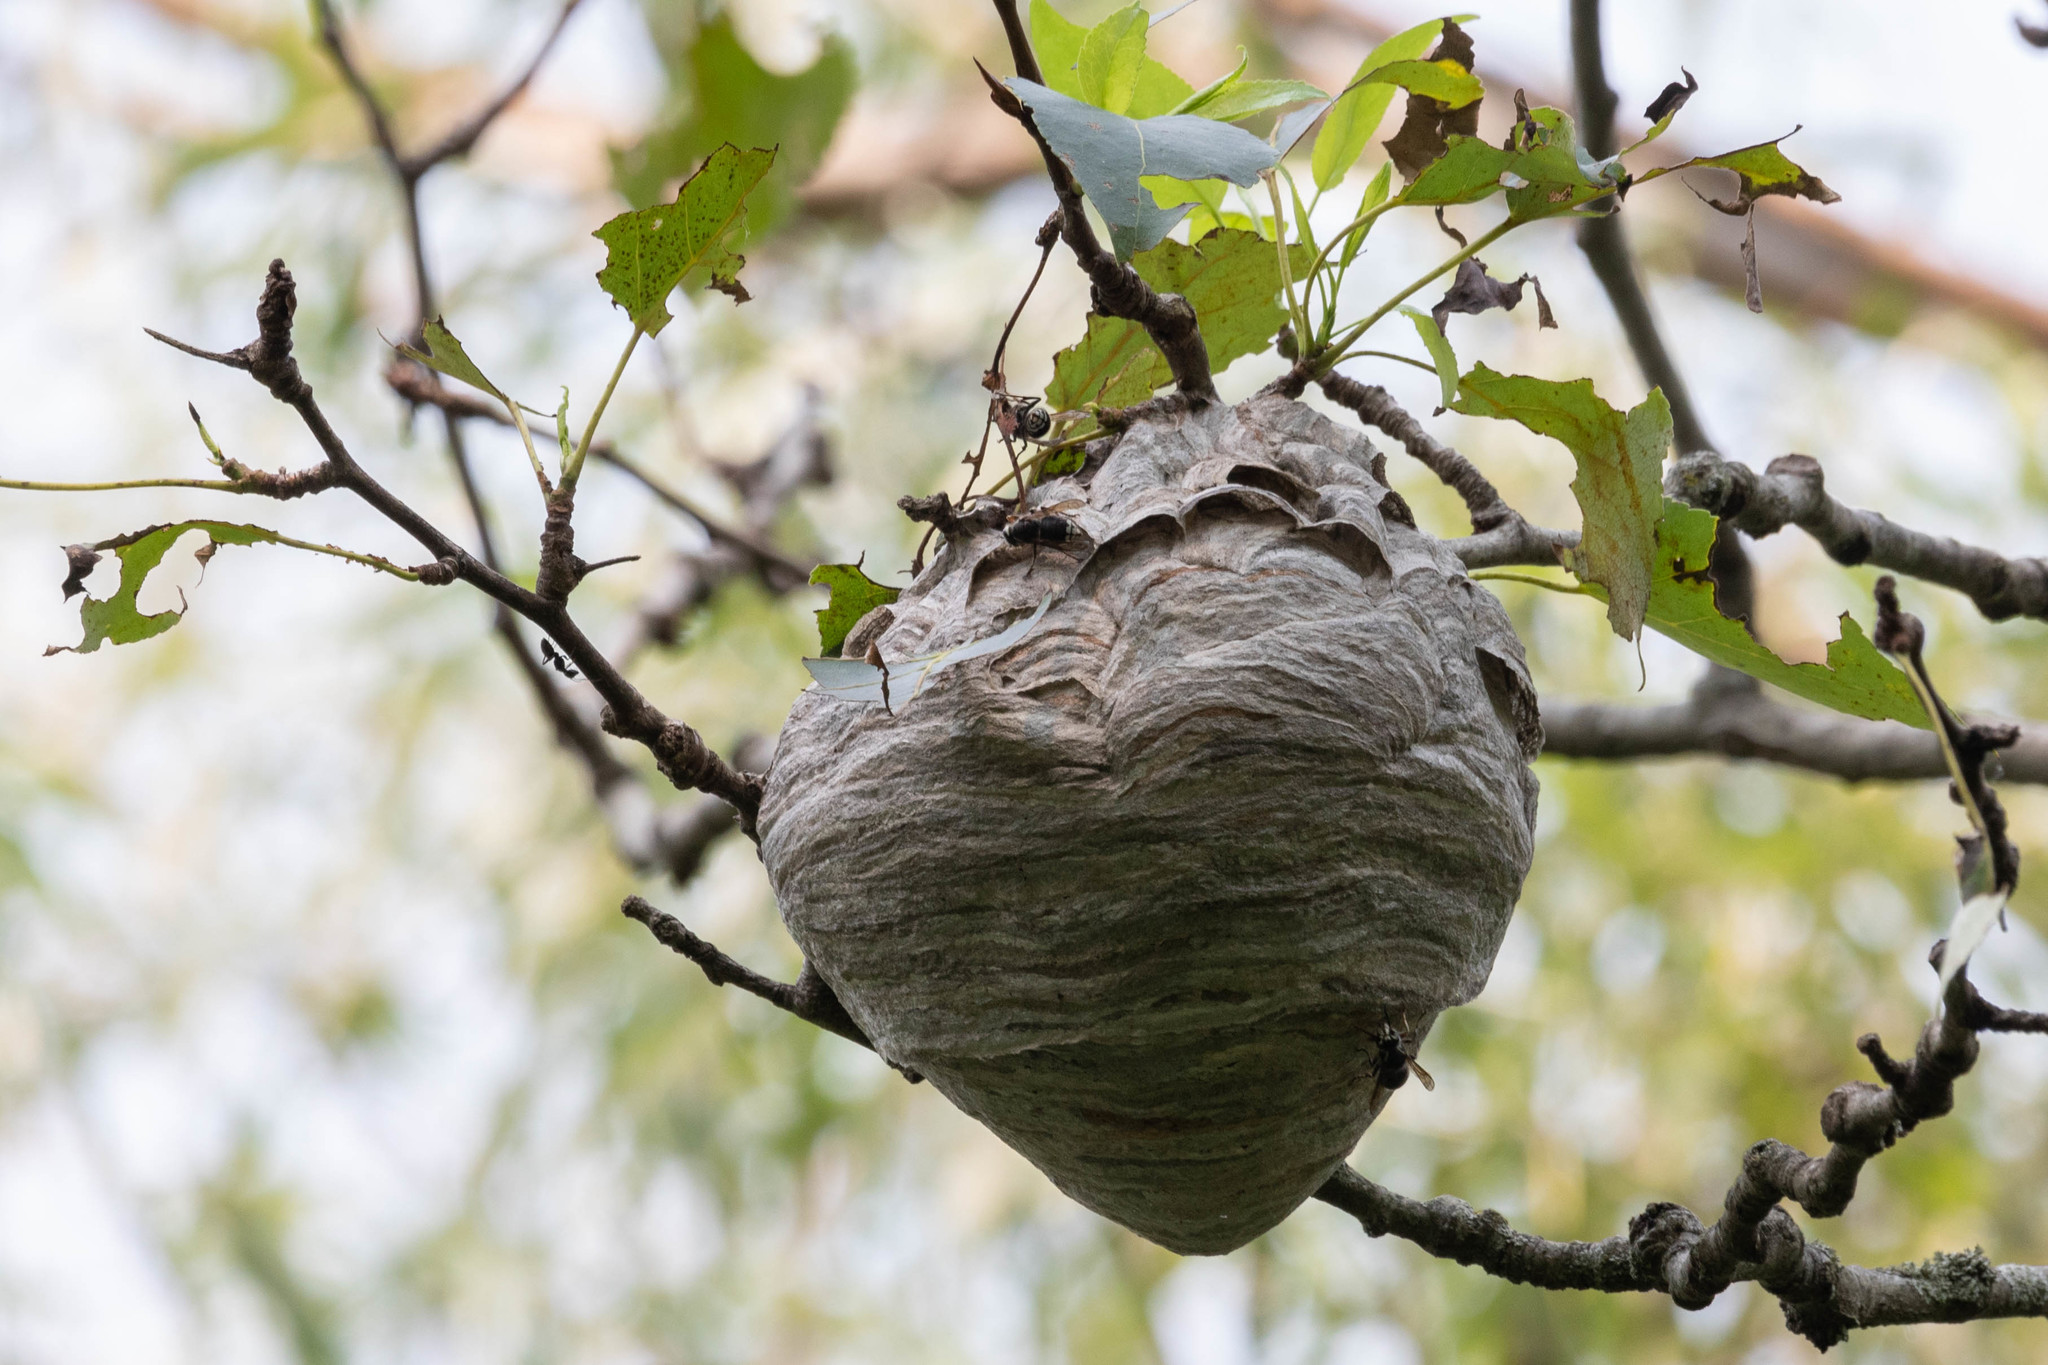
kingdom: Animalia
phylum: Arthropoda
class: Insecta
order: Hymenoptera
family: Vespidae
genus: Dolichovespula
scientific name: Dolichovespula maculata
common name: Bald-faced hornet
